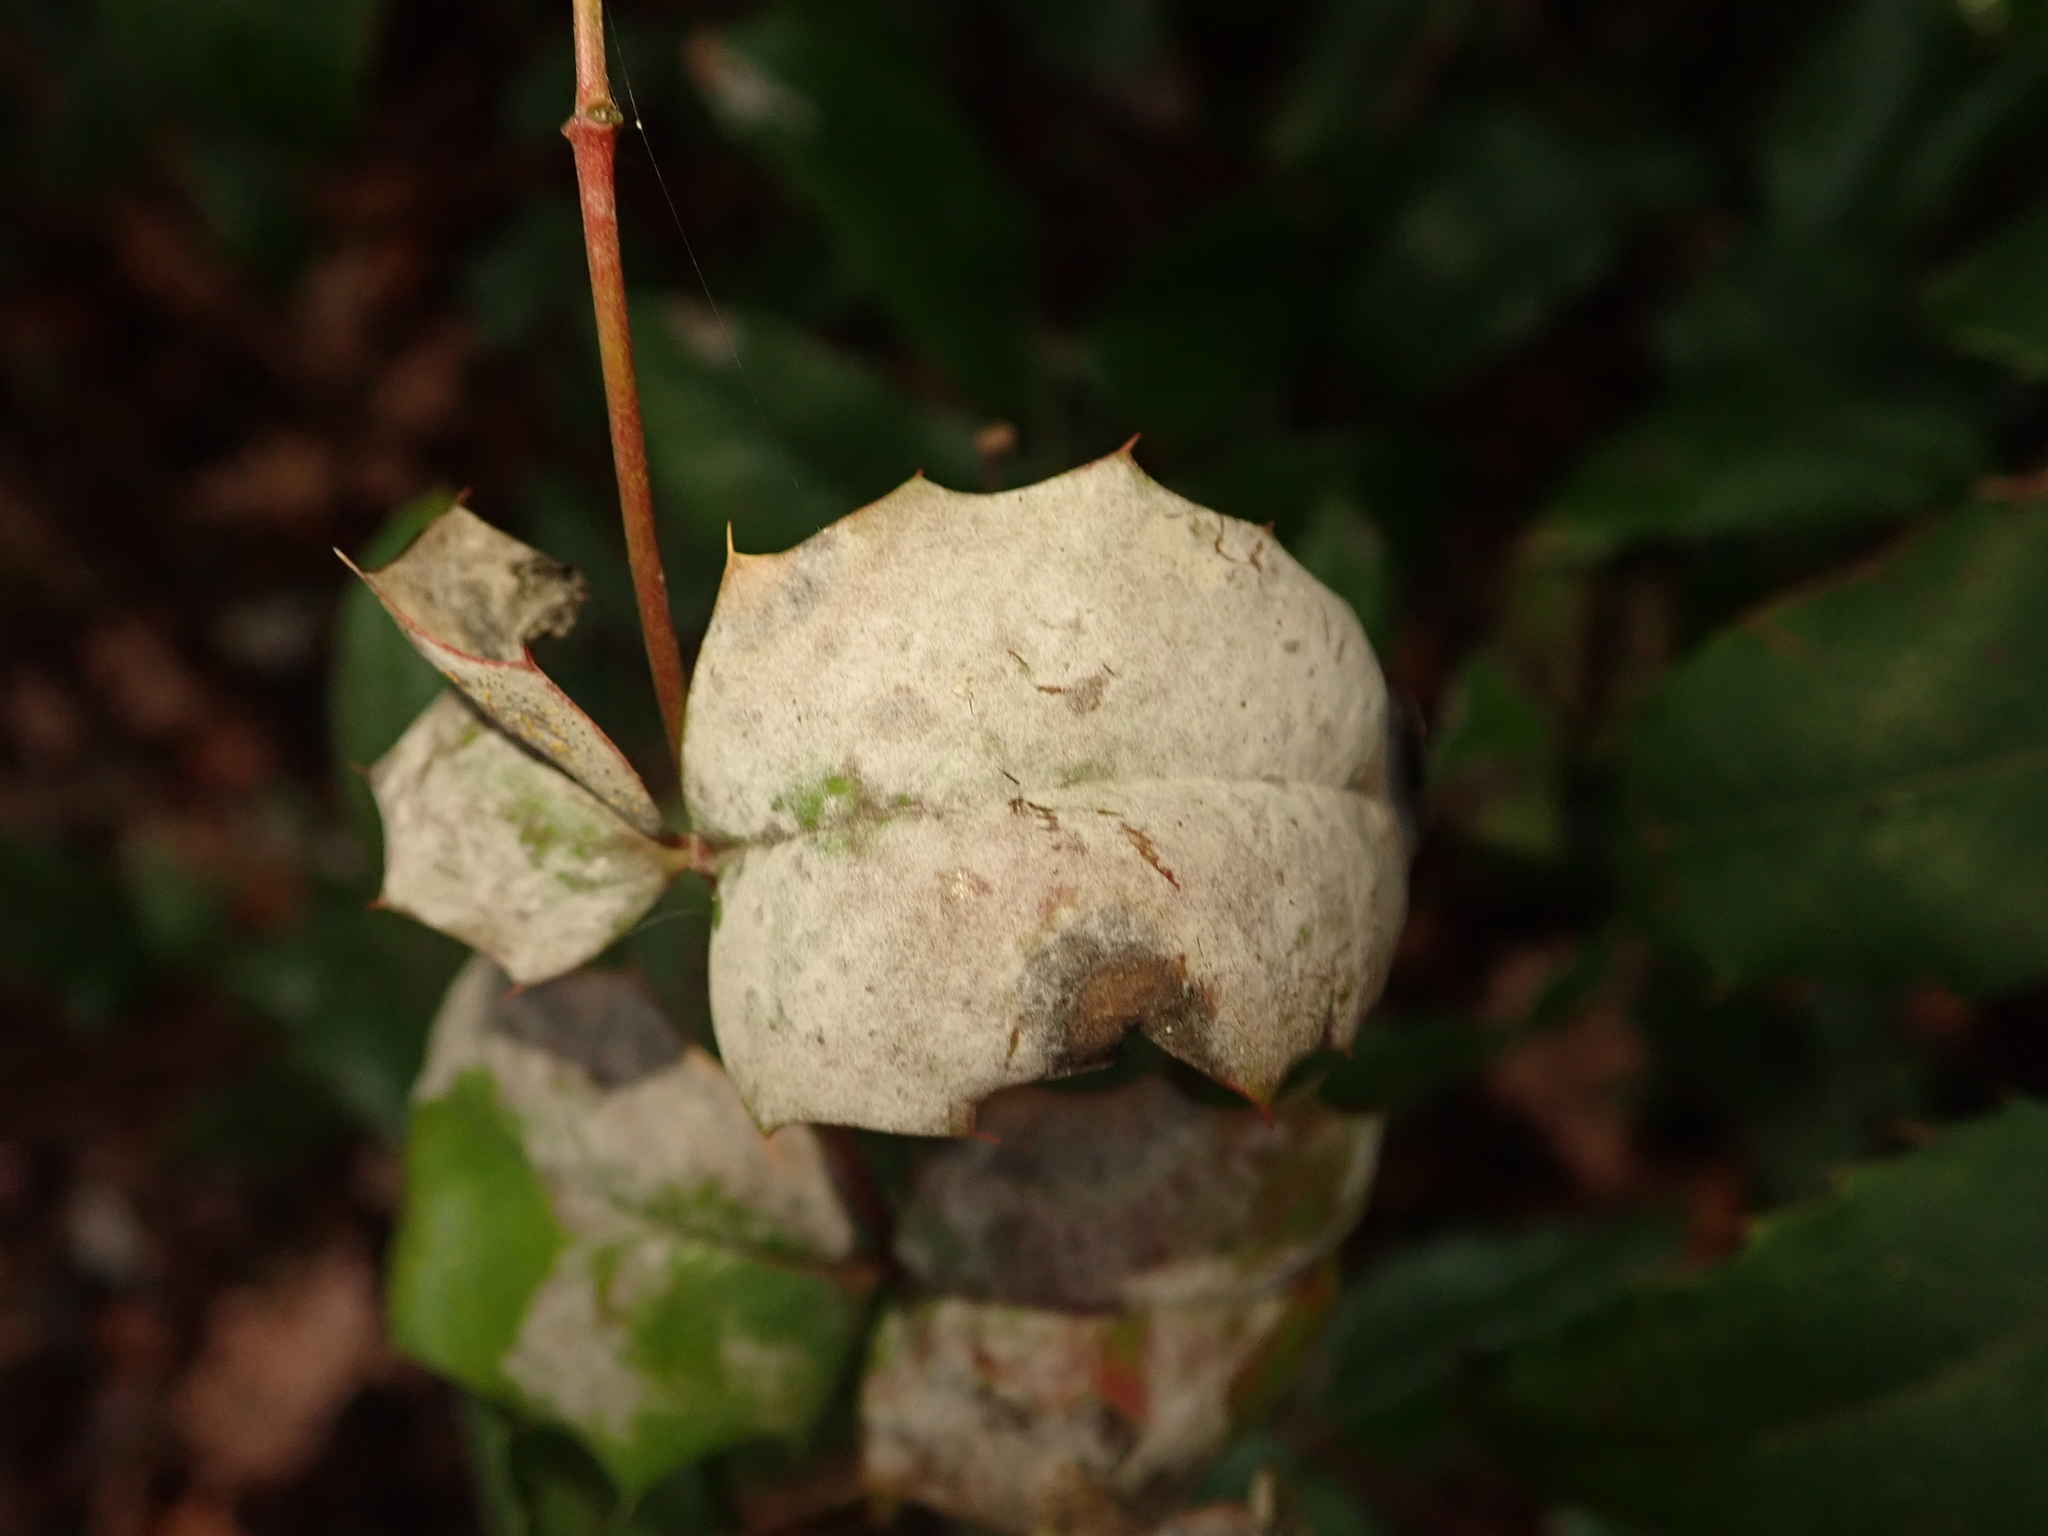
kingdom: Fungi
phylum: Ascomycota
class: Leotiomycetes
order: Helotiales
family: Erysiphaceae
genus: Erysiphe
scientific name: Erysiphe berberidis
